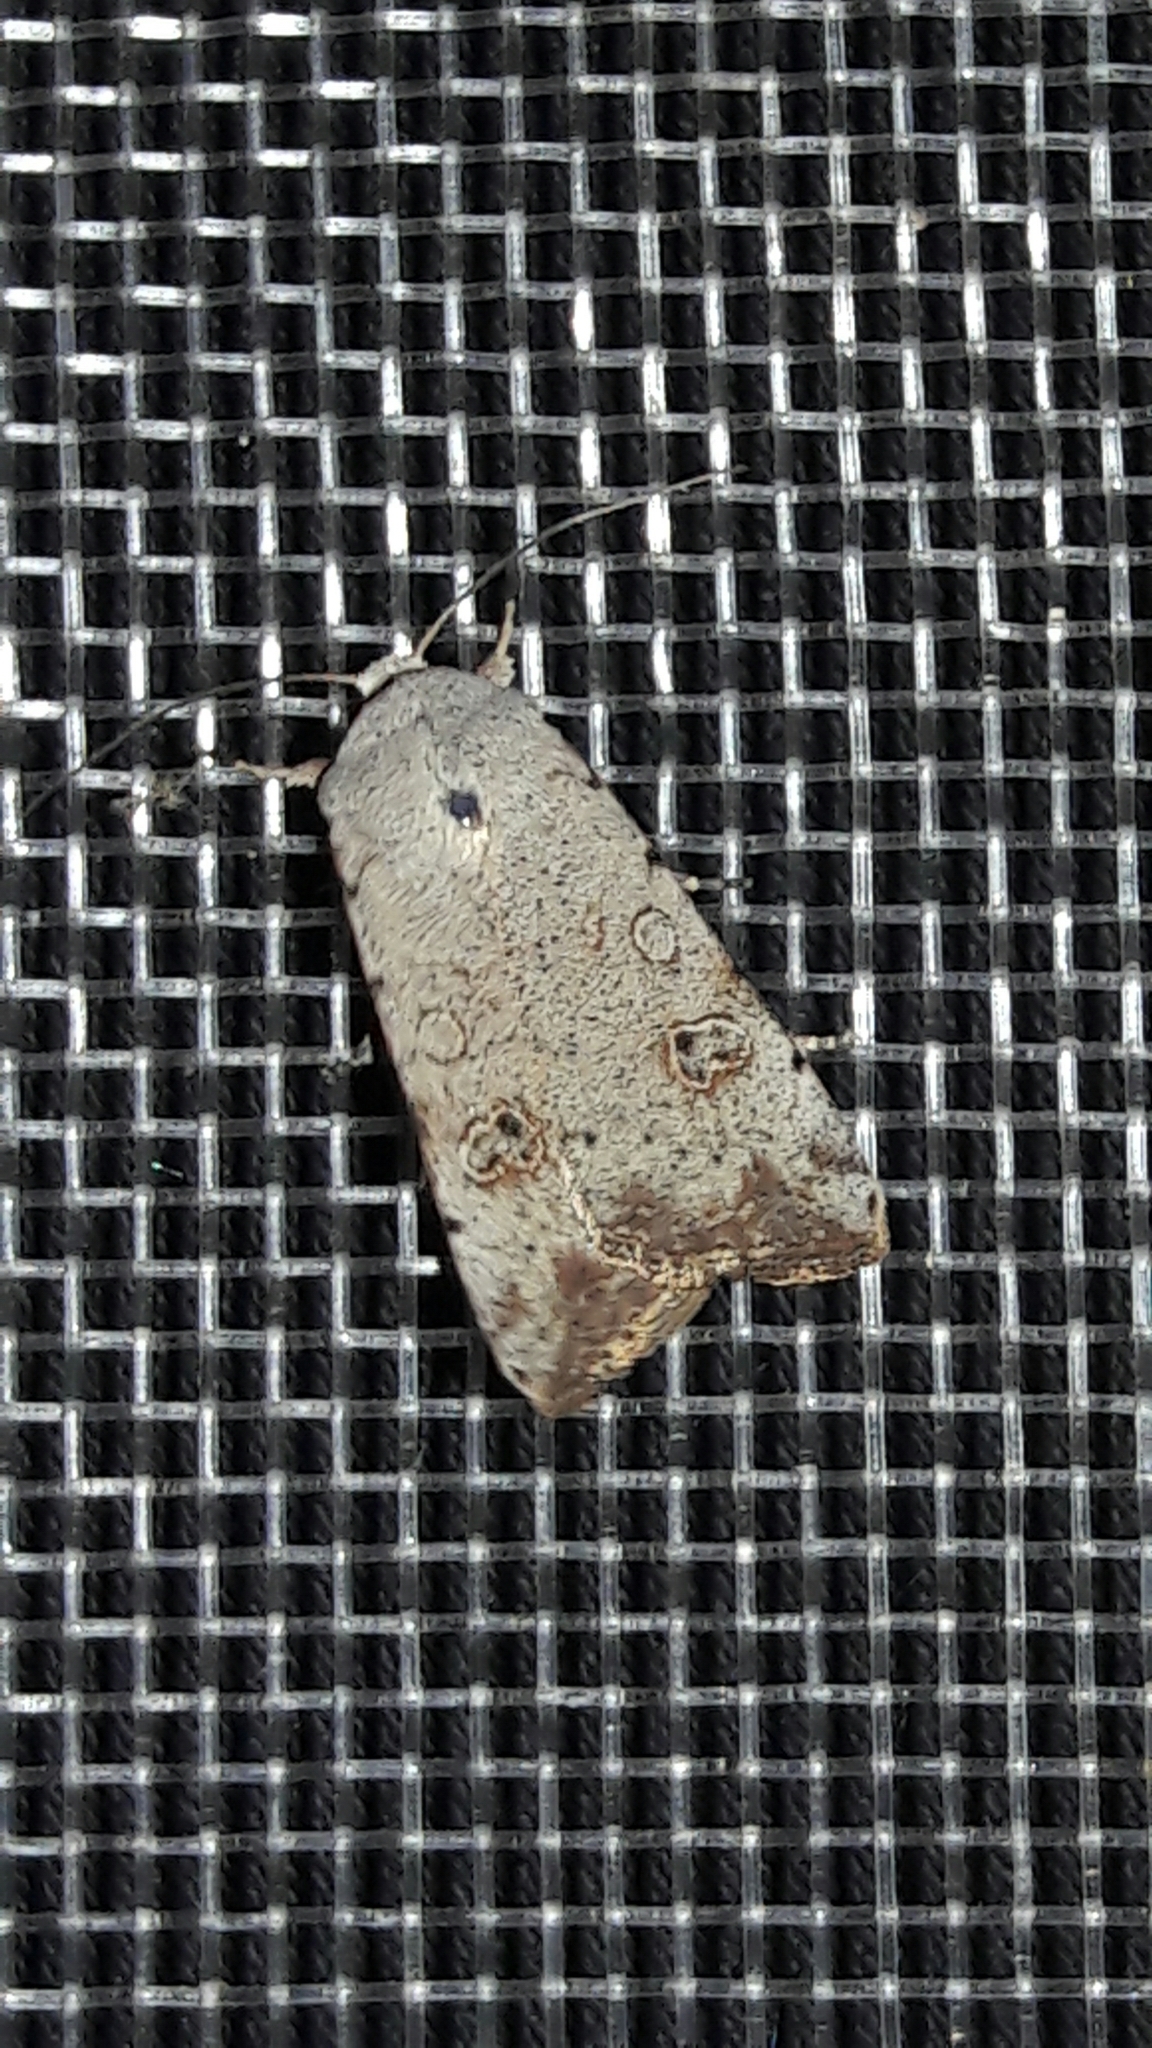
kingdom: Animalia
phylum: Arthropoda
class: Insecta
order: Lepidoptera
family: Noctuidae
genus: Anicla
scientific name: Anicla infecta
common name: Green cutworm
